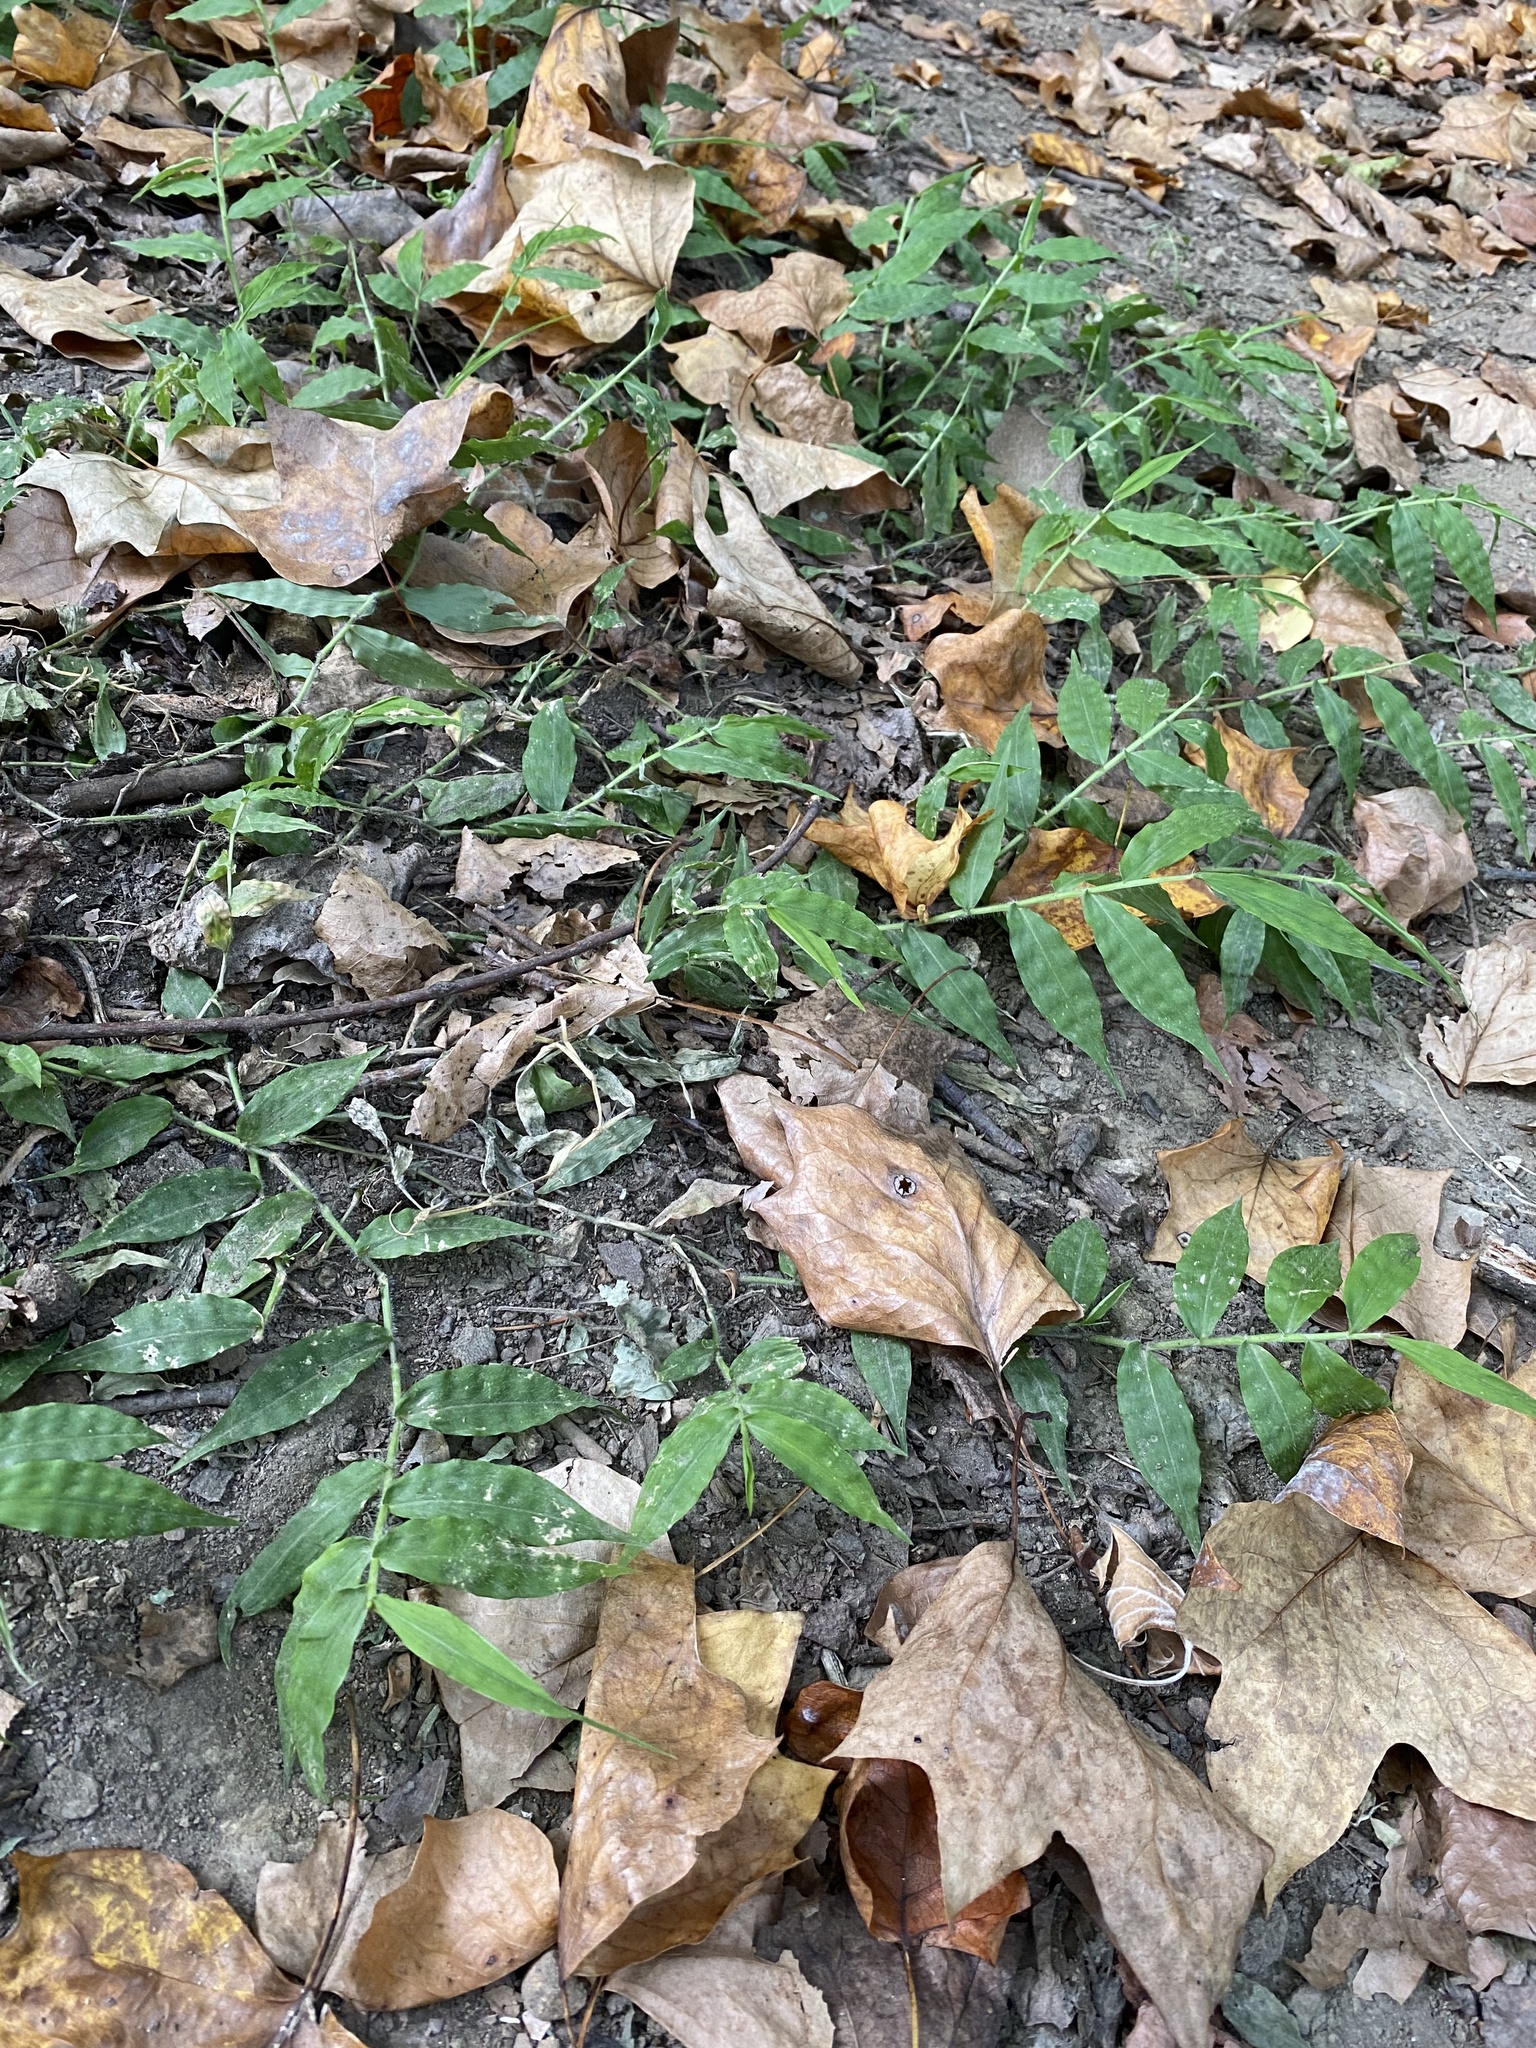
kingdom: Plantae
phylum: Tracheophyta
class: Liliopsida
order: Poales
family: Poaceae
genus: Oplismenus
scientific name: Oplismenus undulatifolius
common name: Wavyleaf basketgrass
